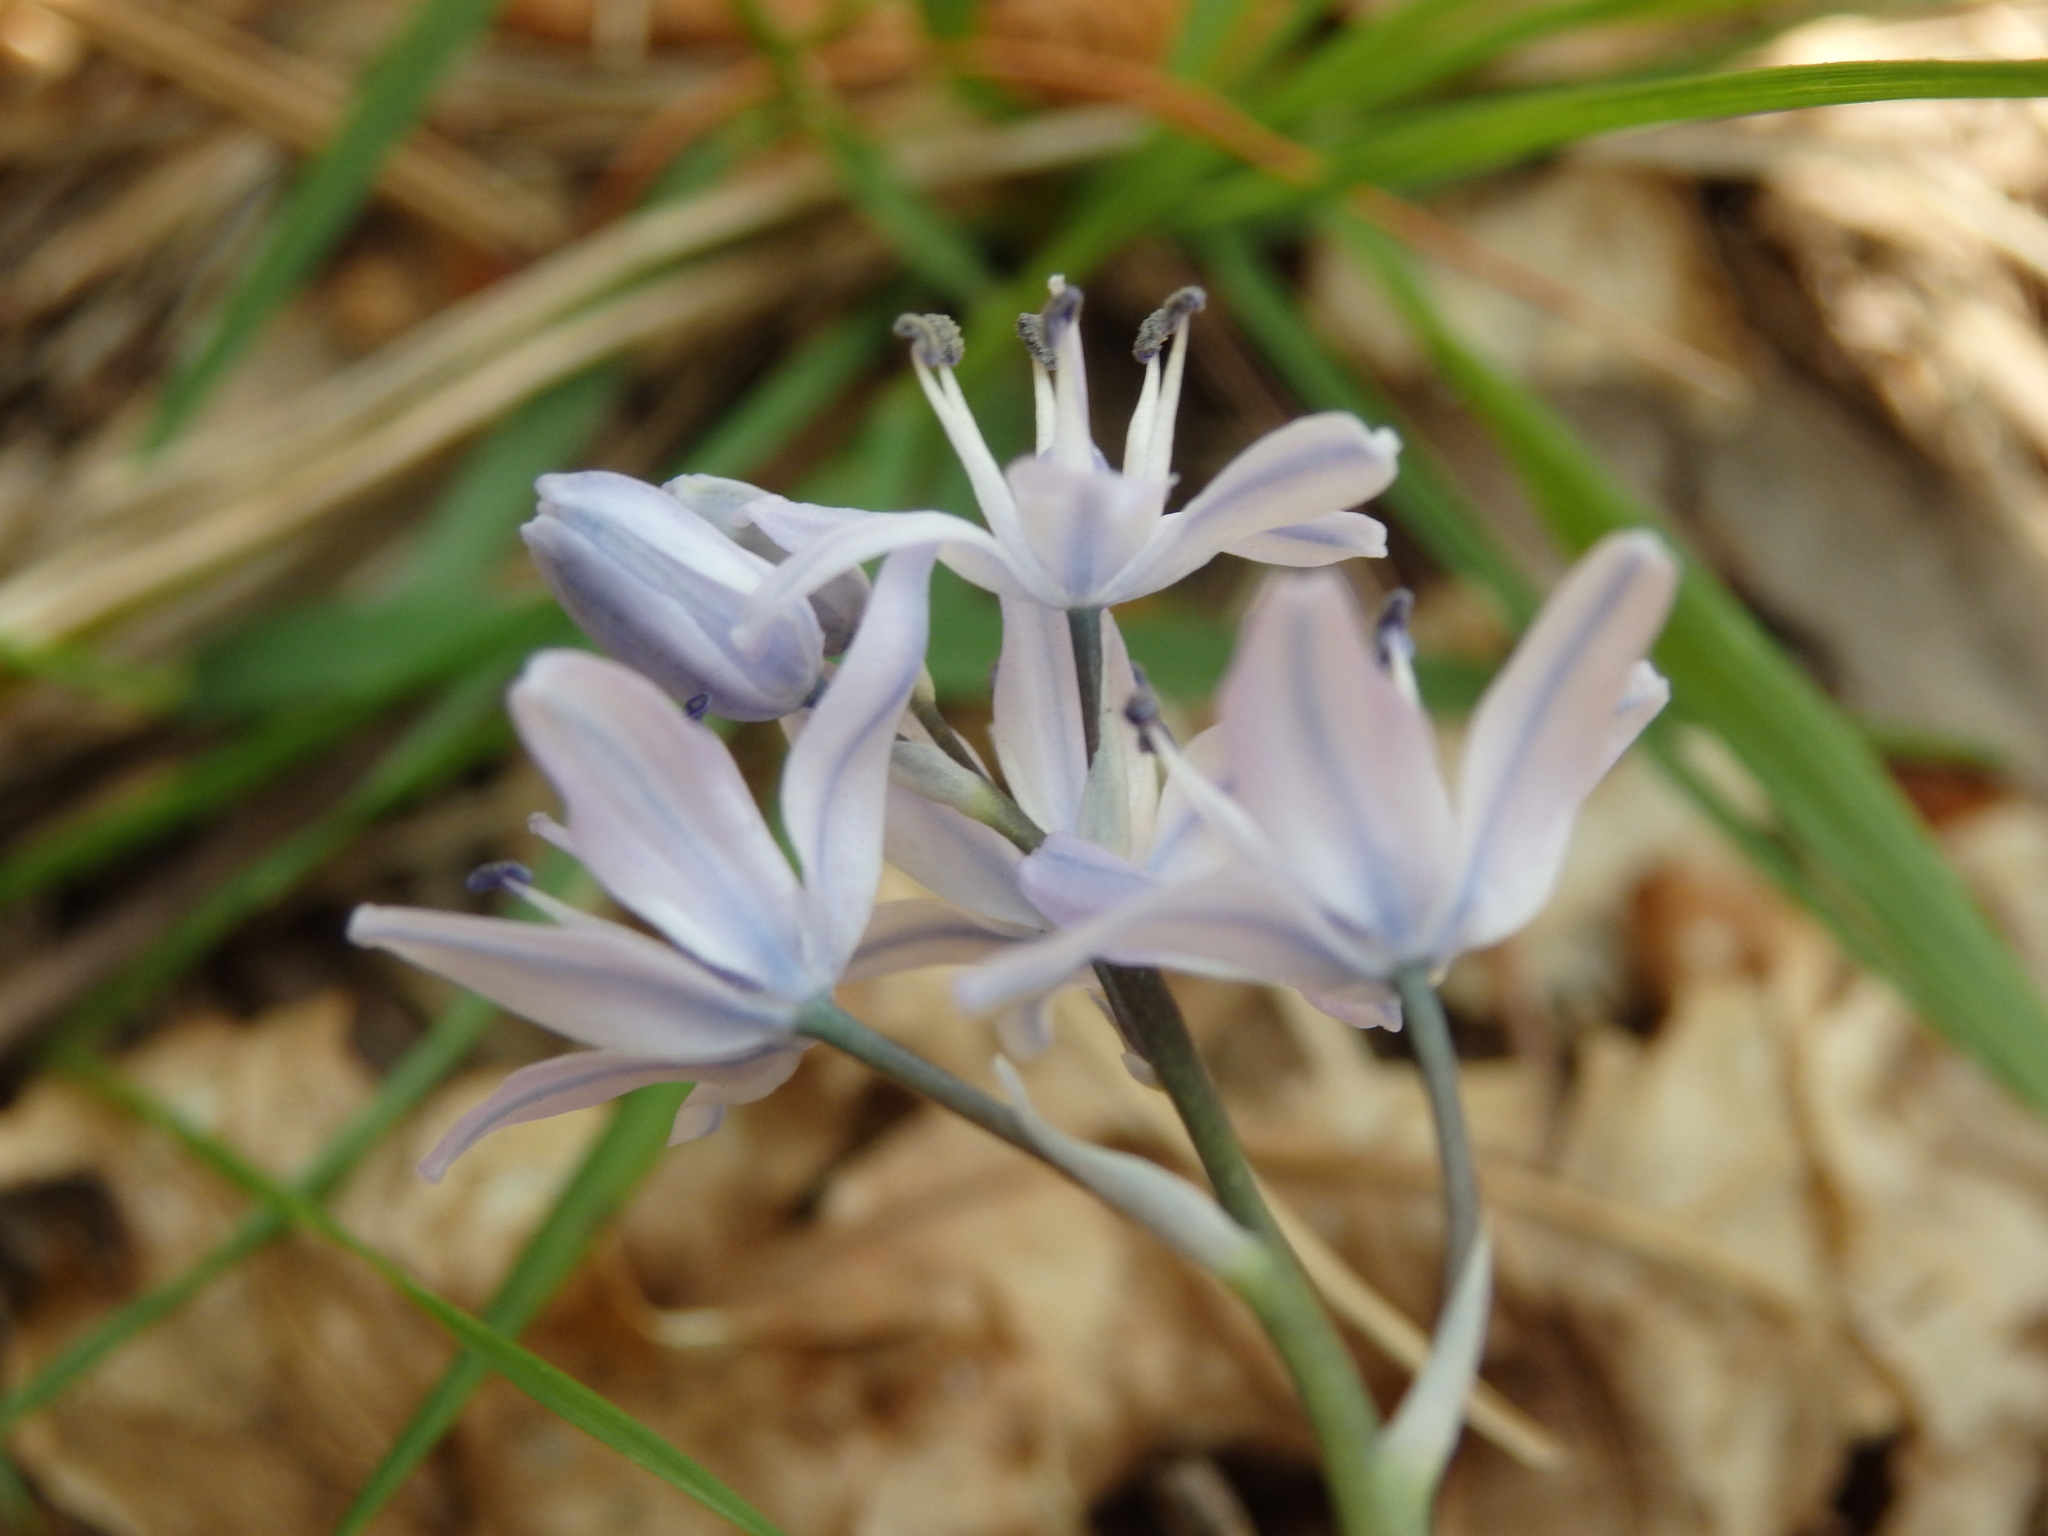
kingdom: Plantae
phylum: Tracheophyta
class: Liliopsida
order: Asparagales
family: Asparagaceae
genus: Scilla
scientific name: Scilla verna
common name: Spring squill
